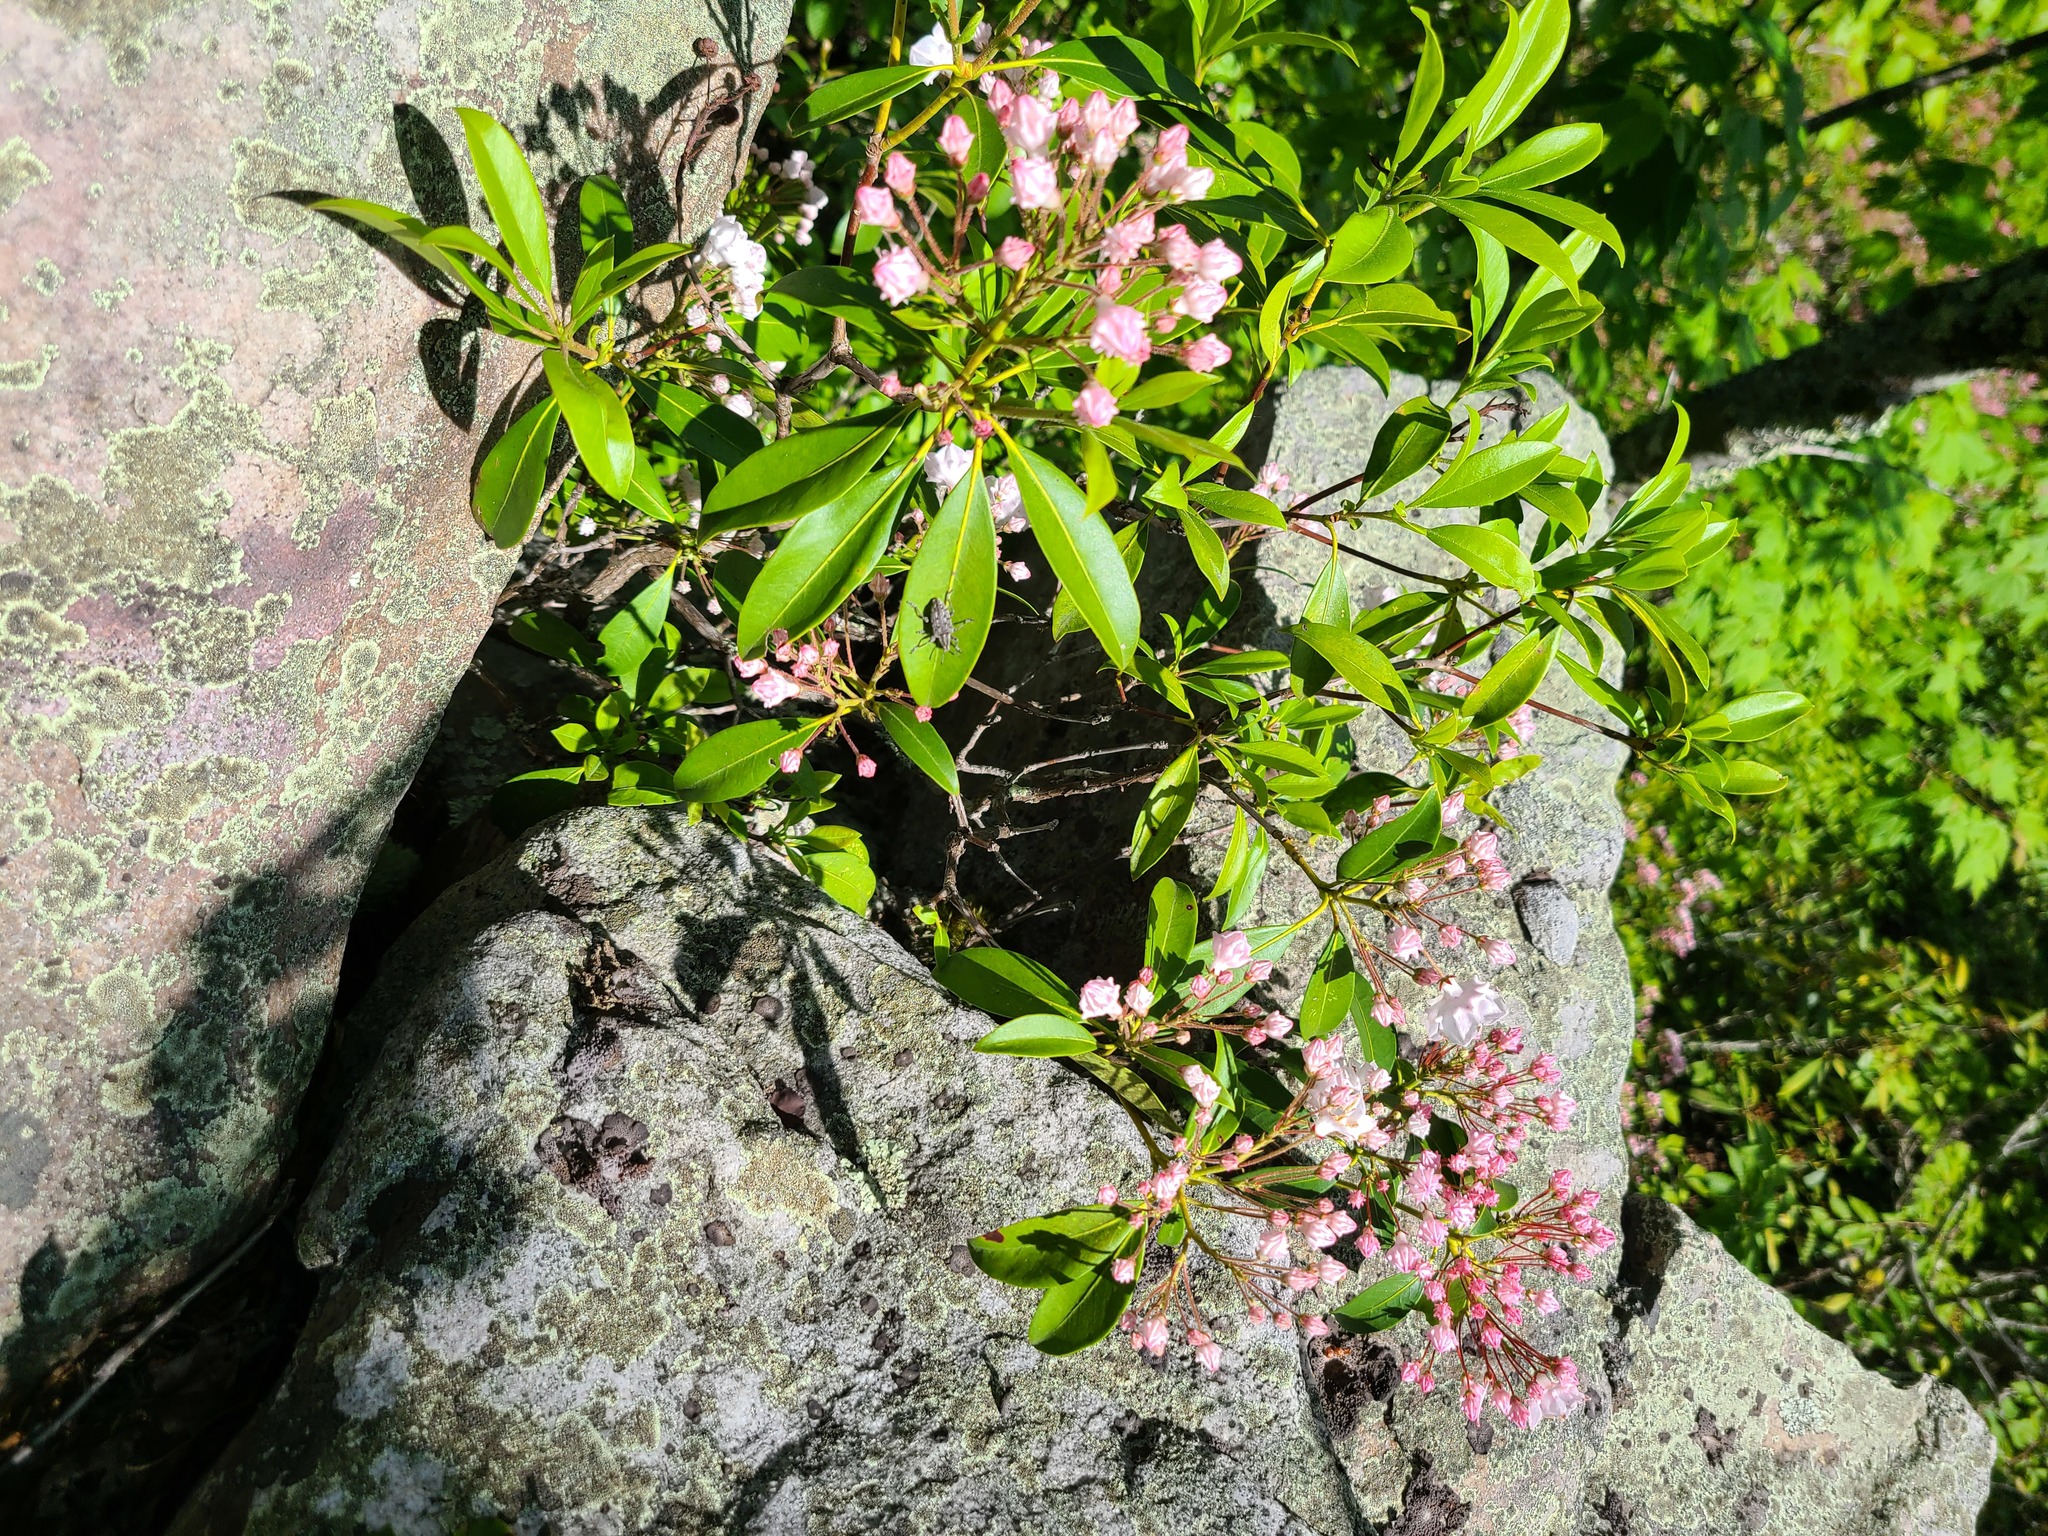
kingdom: Plantae
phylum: Tracheophyta
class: Magnoliopsida
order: Ericales
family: Ericaceae
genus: Kalmia
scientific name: Kalmia latifolia
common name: Mountain-laurel
